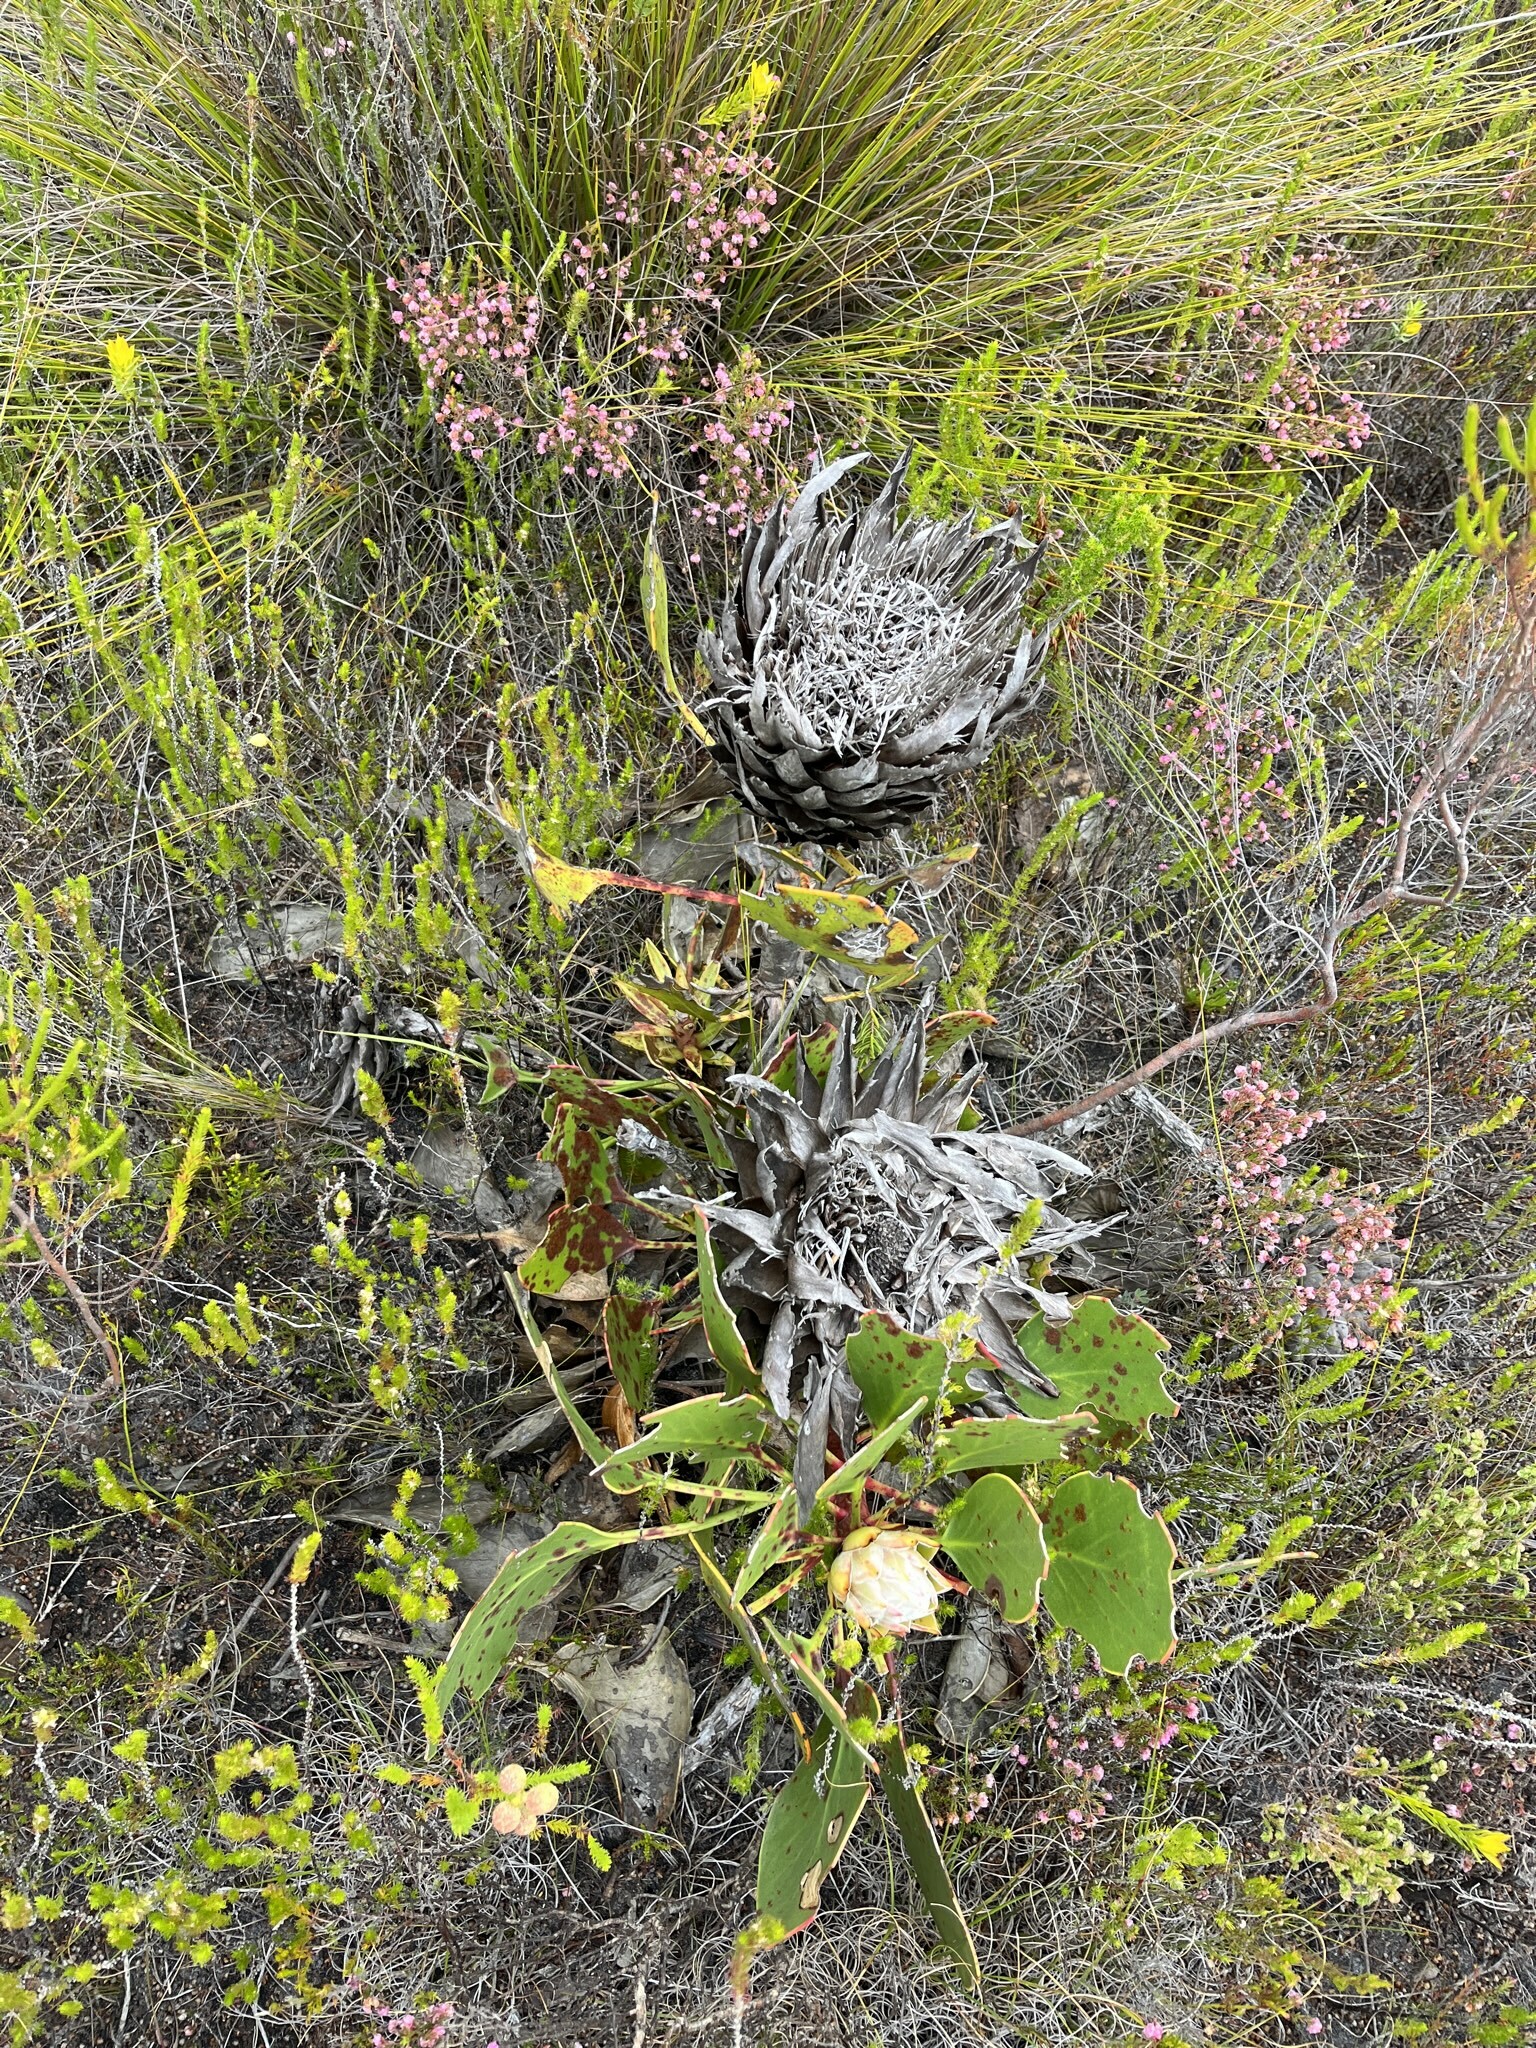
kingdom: Plantae
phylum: Tracheophyta
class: Magnoliopsida
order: Proteales
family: Proteaceae
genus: Protea
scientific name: Protea cynaroides
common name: King protea
